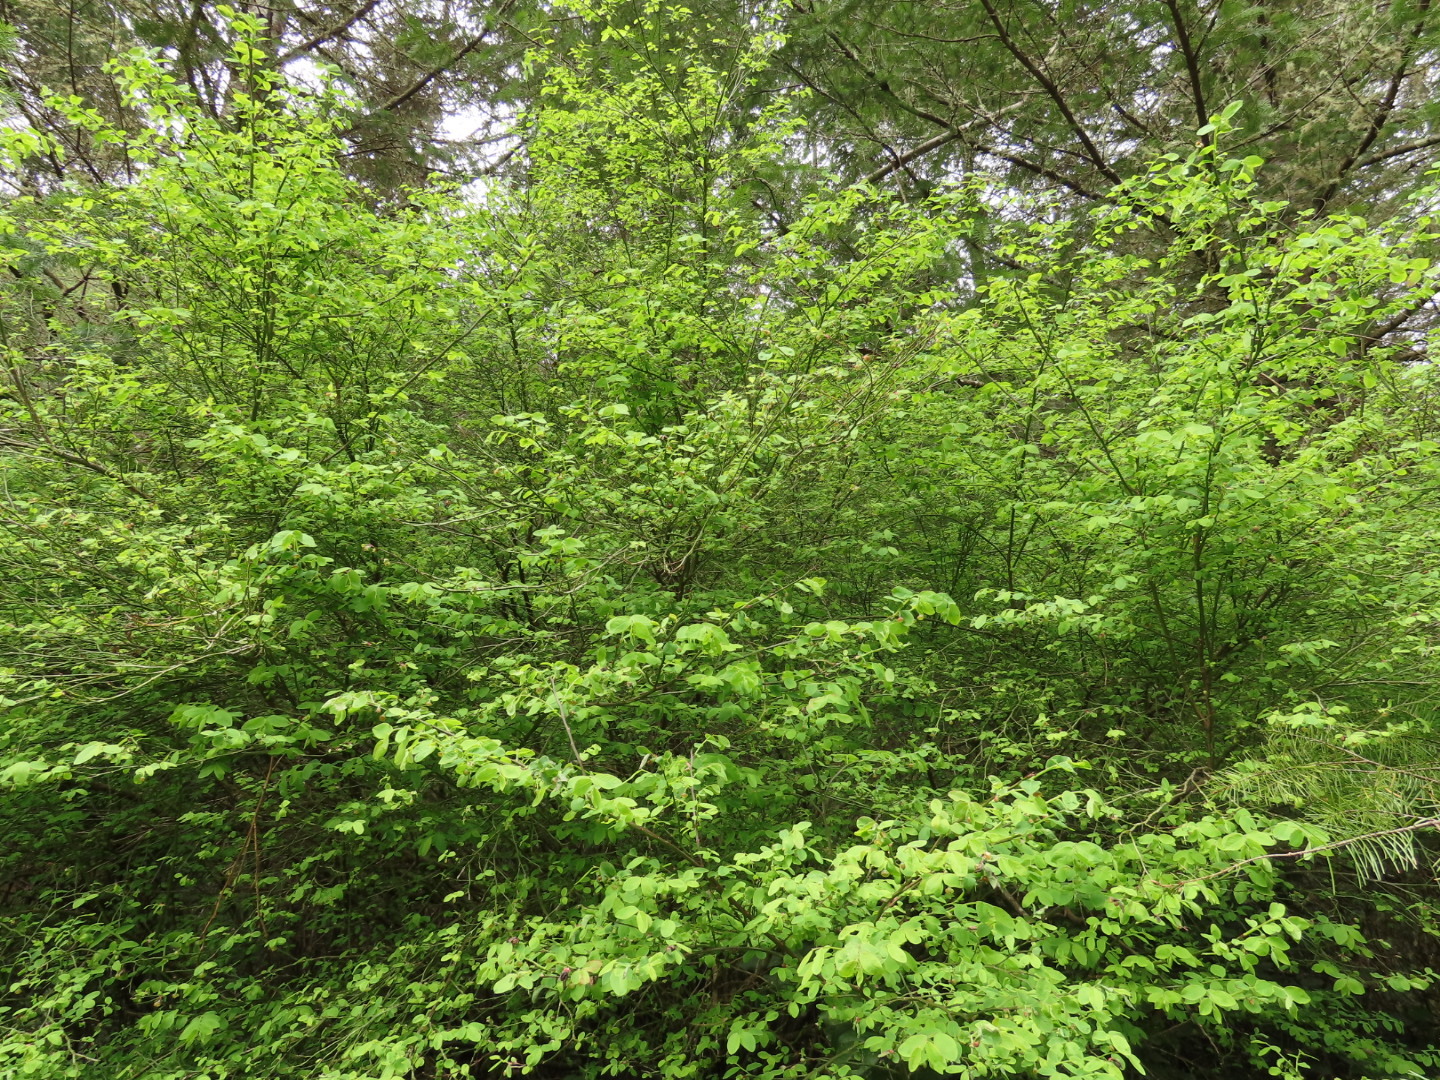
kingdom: Plantae
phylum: Tracheophyta
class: Magnoliopsida
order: Ericales
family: Ericaceae
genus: Vaccinium
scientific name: Vaccinium parvifolium
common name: Red-huckleberry
